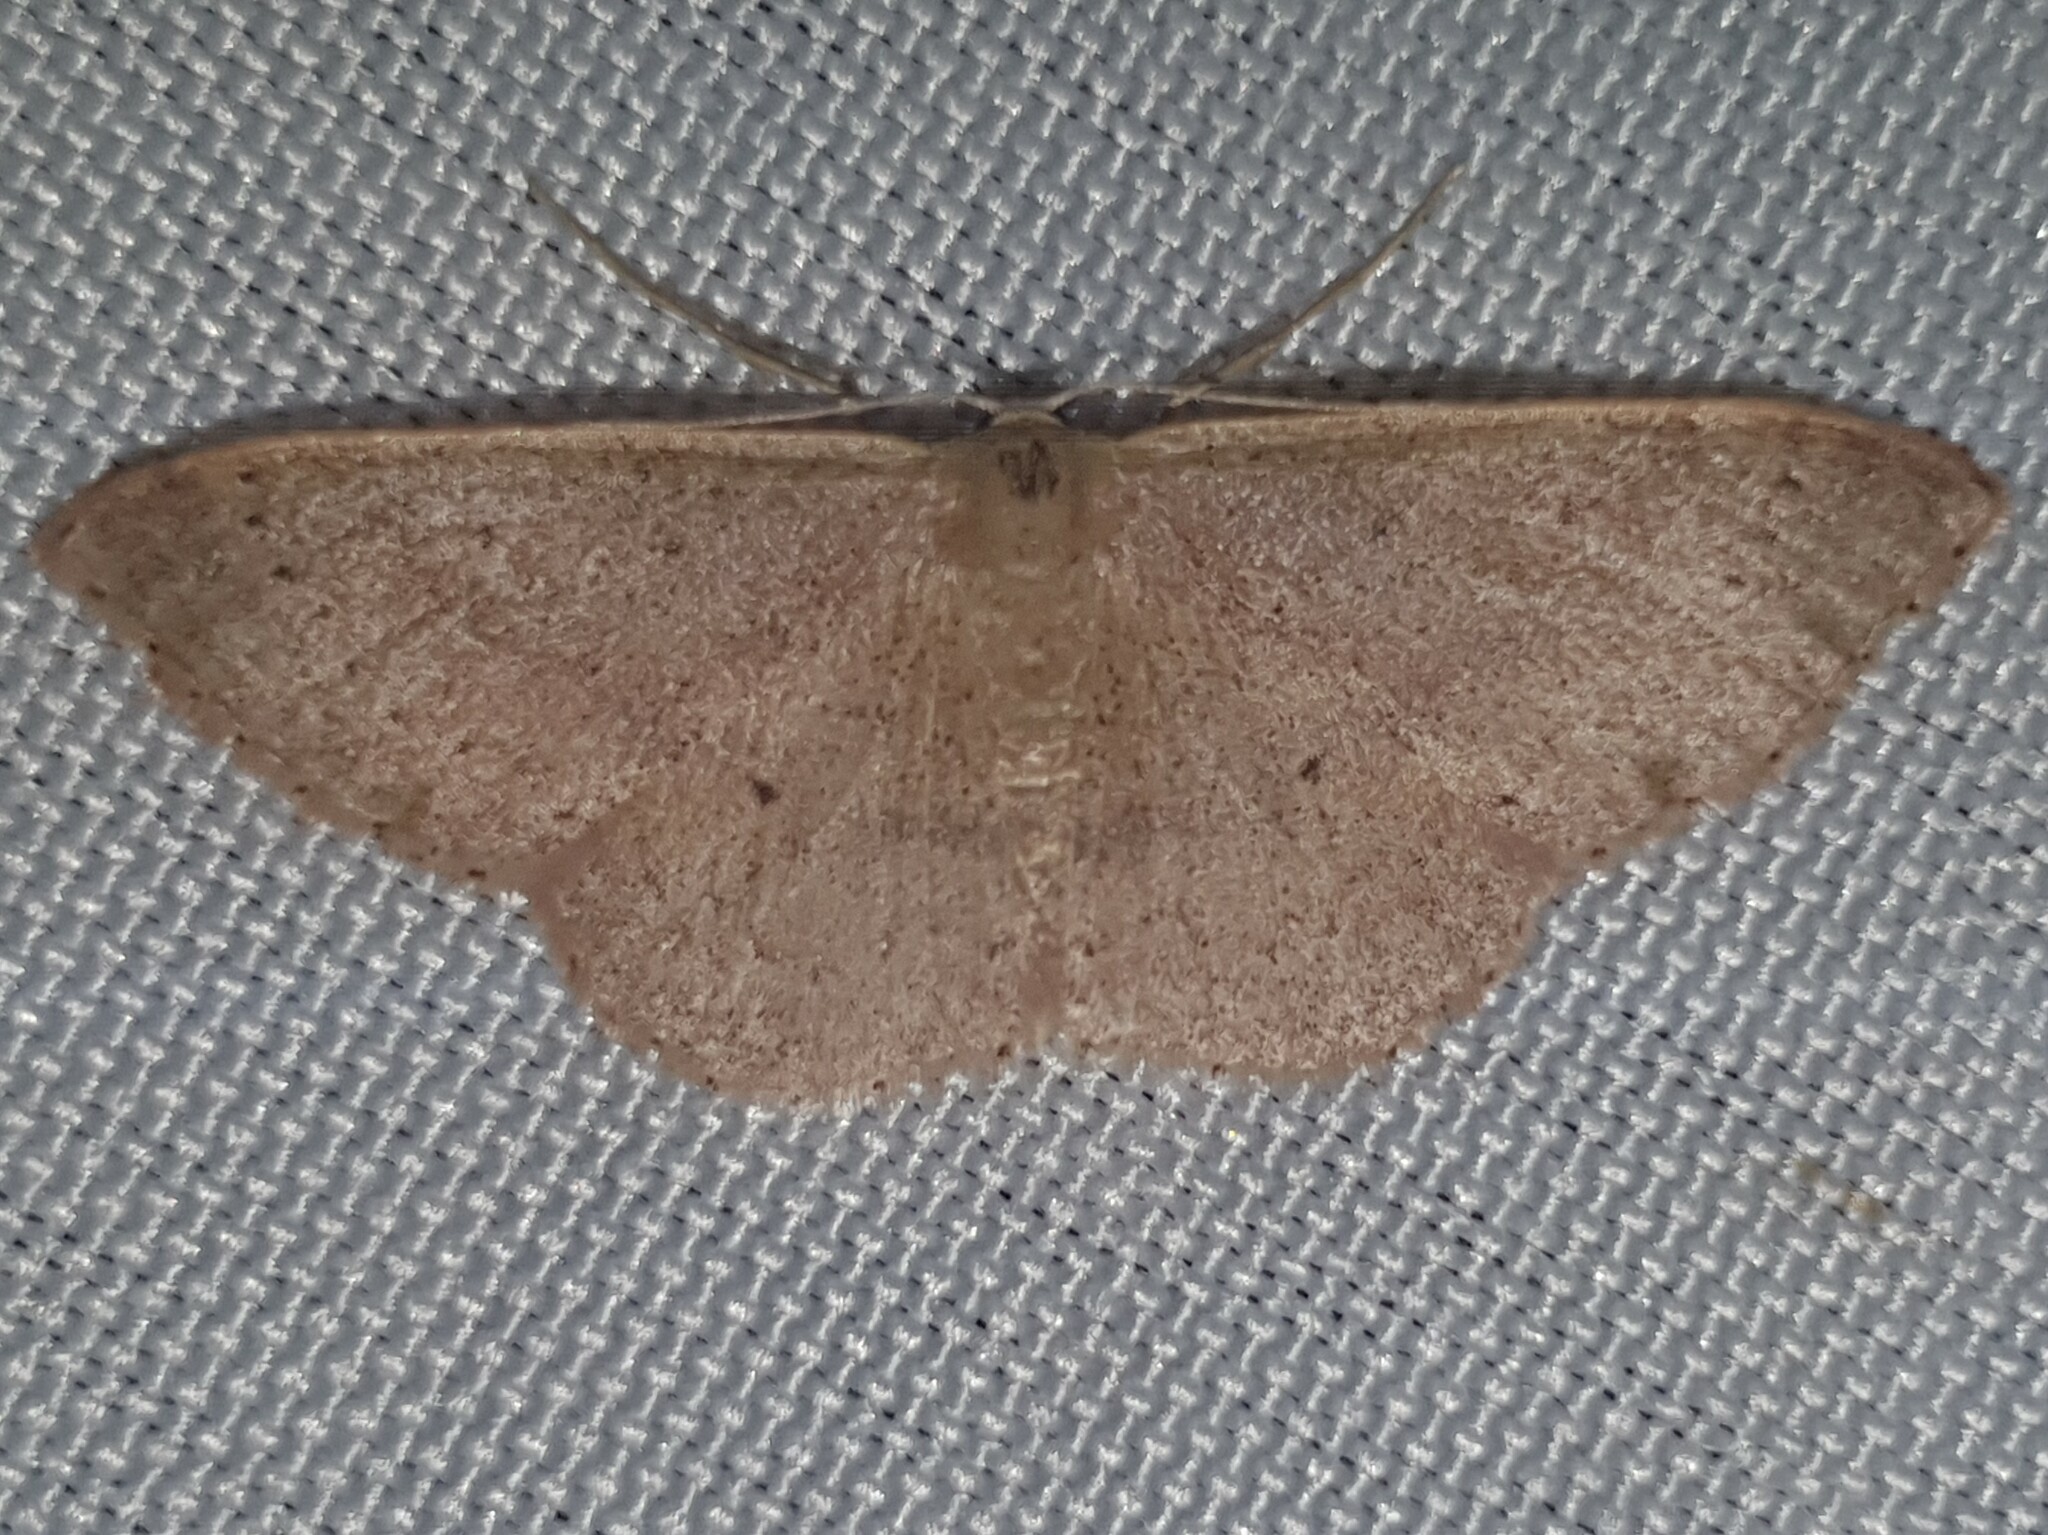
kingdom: Animalia
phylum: Arthropoda
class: Insecta
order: Lepidoptera
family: Geometridae
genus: Idaea
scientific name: Idaea eugeniata
